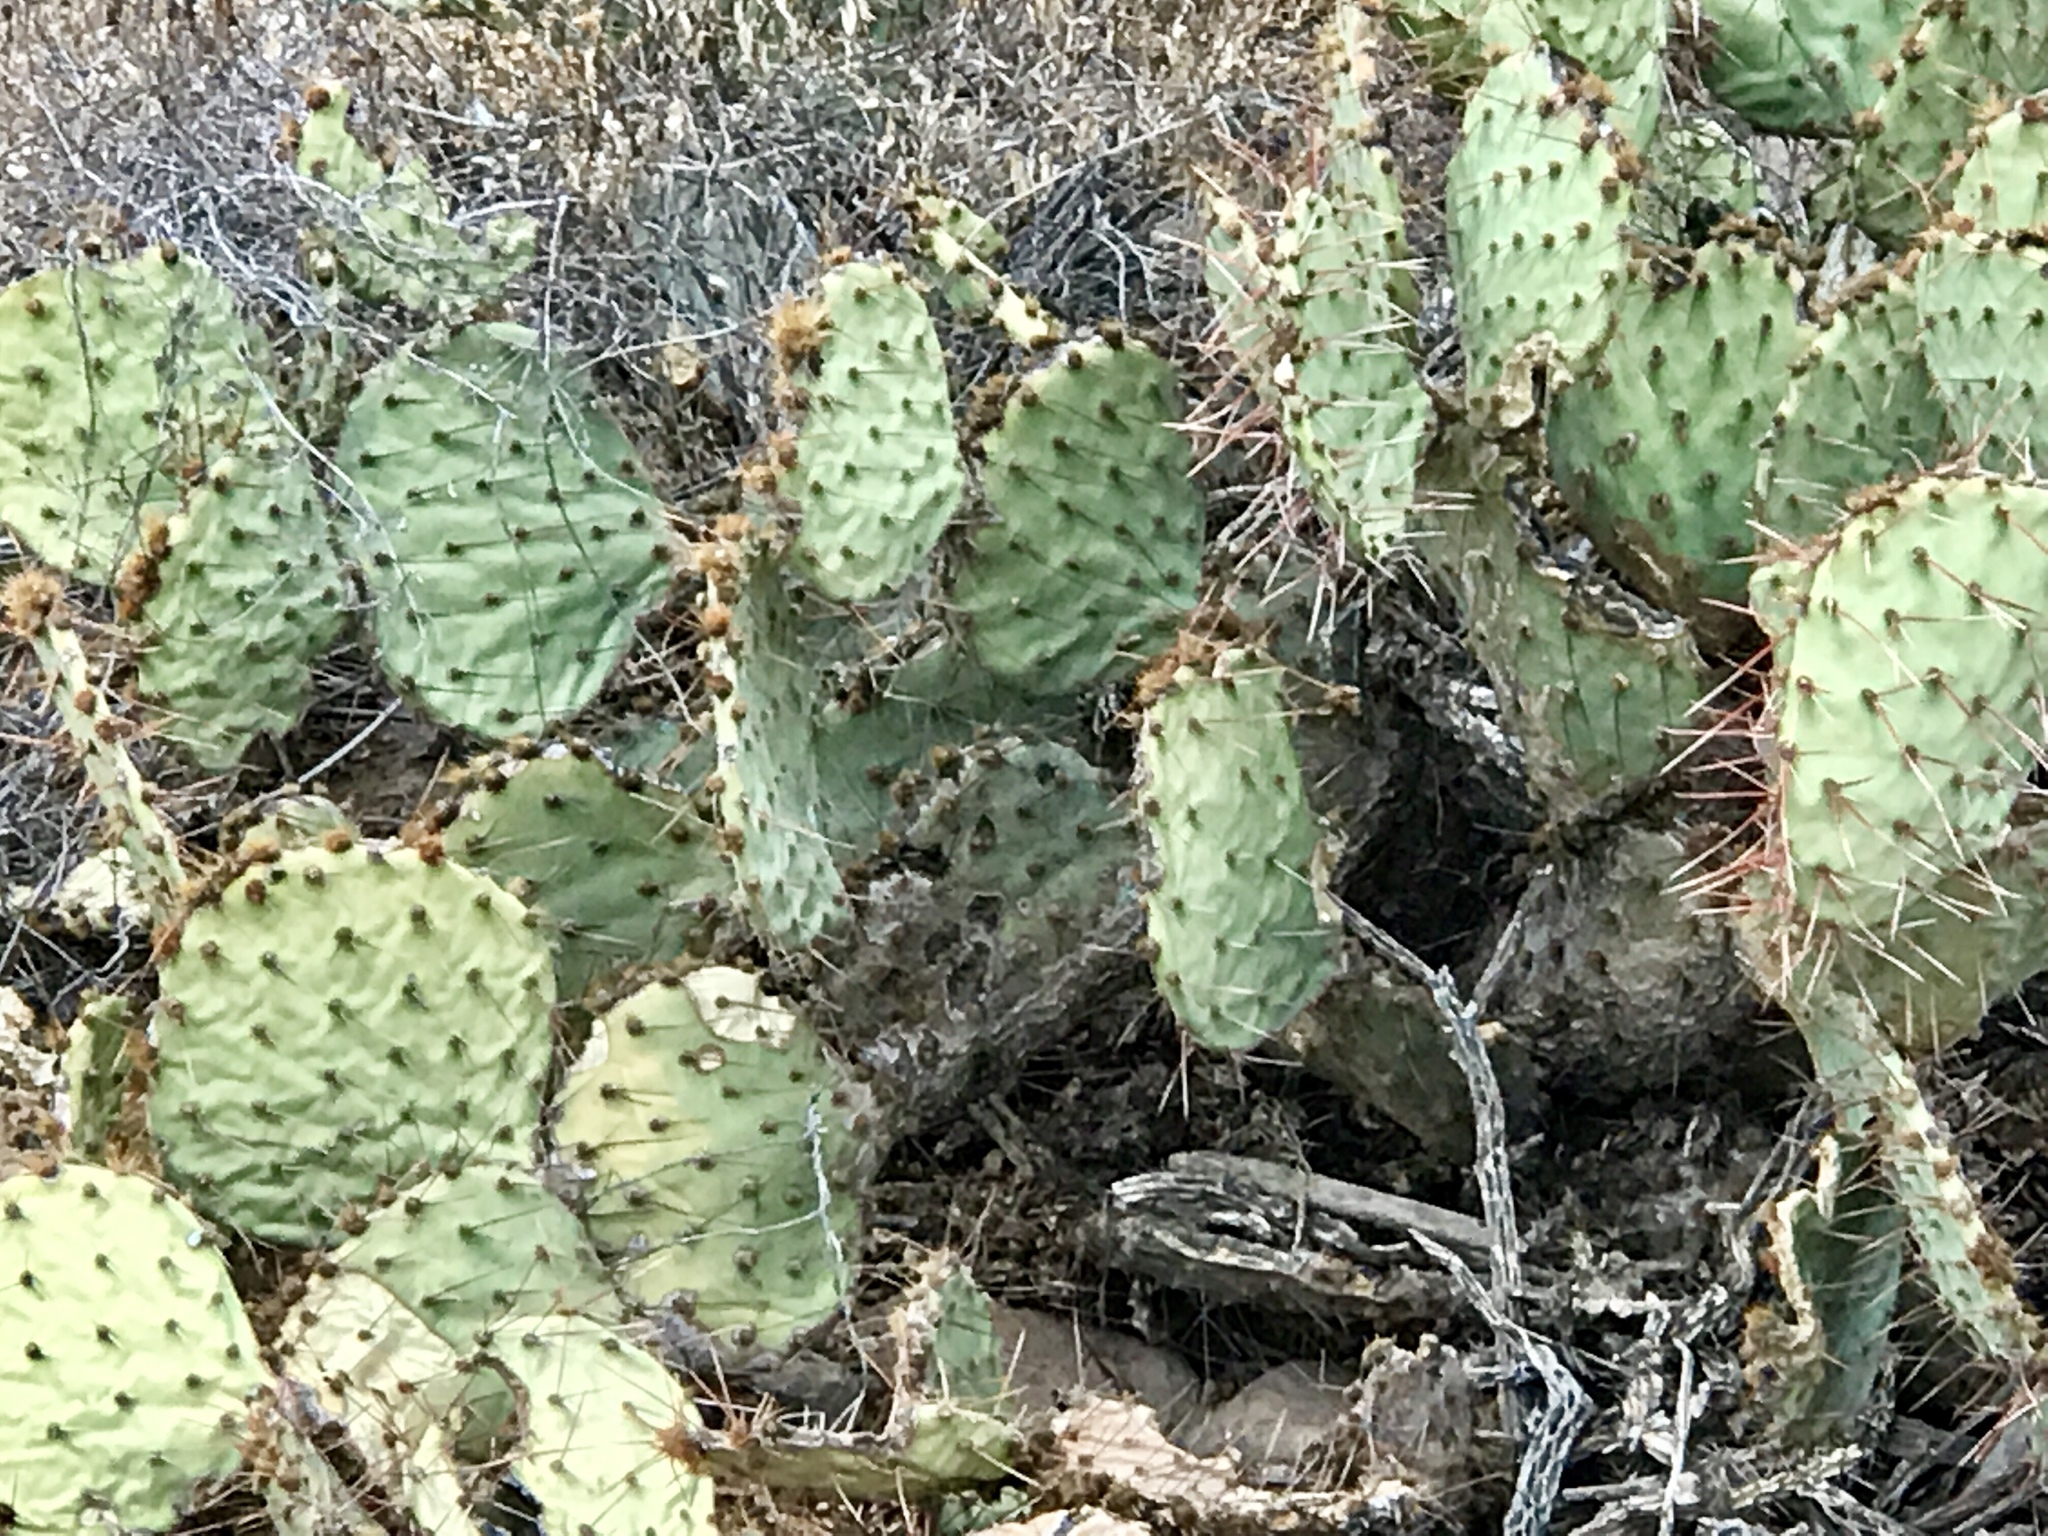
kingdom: Plantae
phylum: Tracheophyta
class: Magnoliopsida
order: Caryophyllales
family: Cactaceae
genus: Opuntia
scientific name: Opuntia phaeacantha
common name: New mexico prickly-pear
